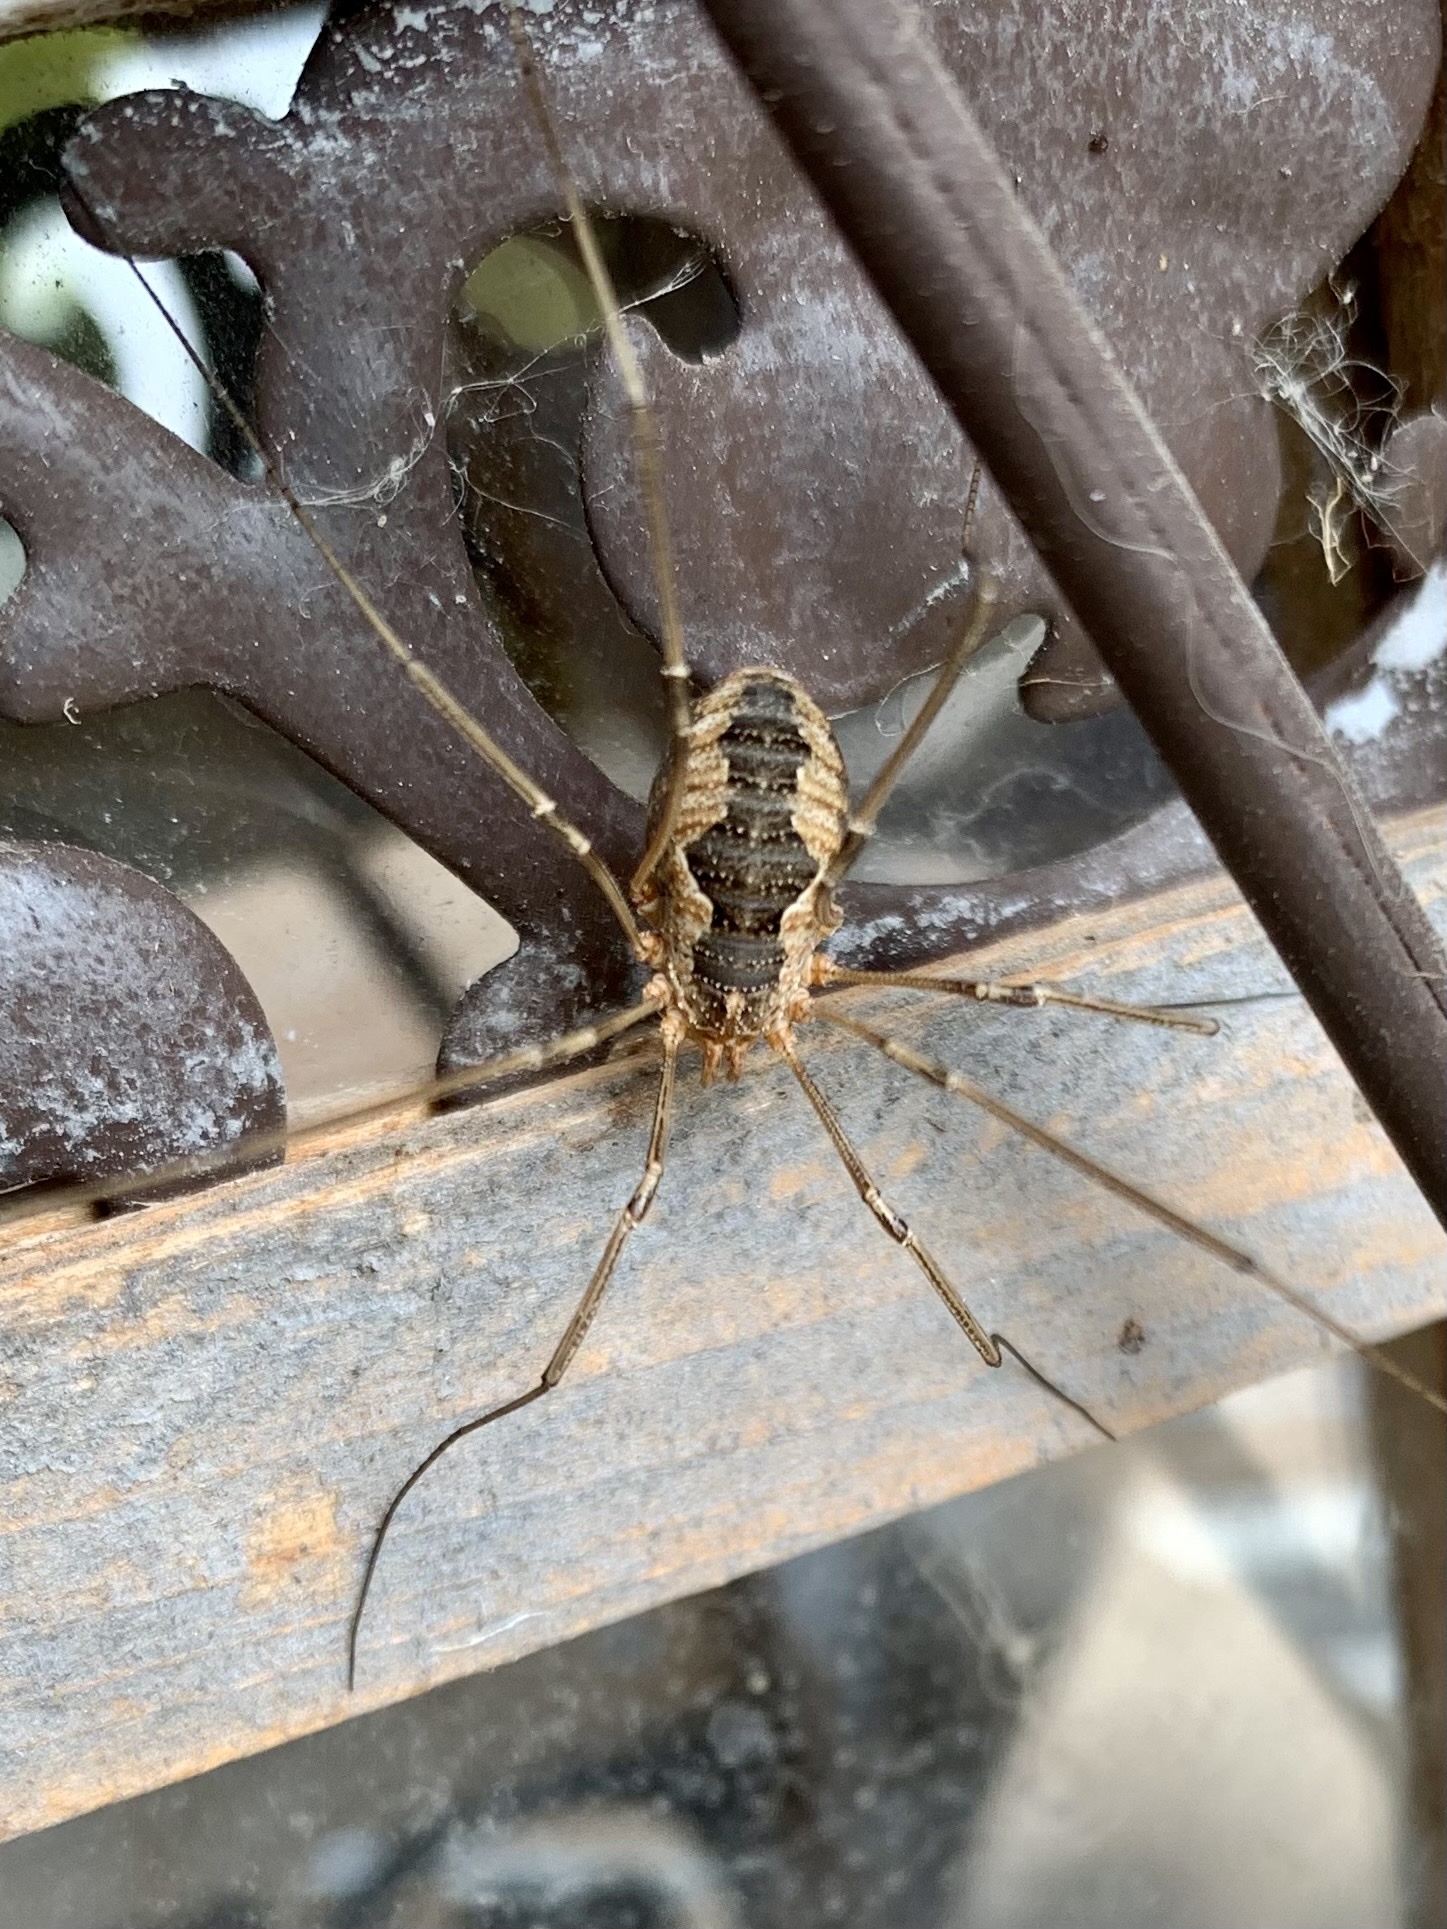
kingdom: Animalia
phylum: Arthropoda
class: Arachnida
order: Opiliones
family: Phalangiidae
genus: Phalangium
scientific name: Phalangium opilio
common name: Daddy longleg
